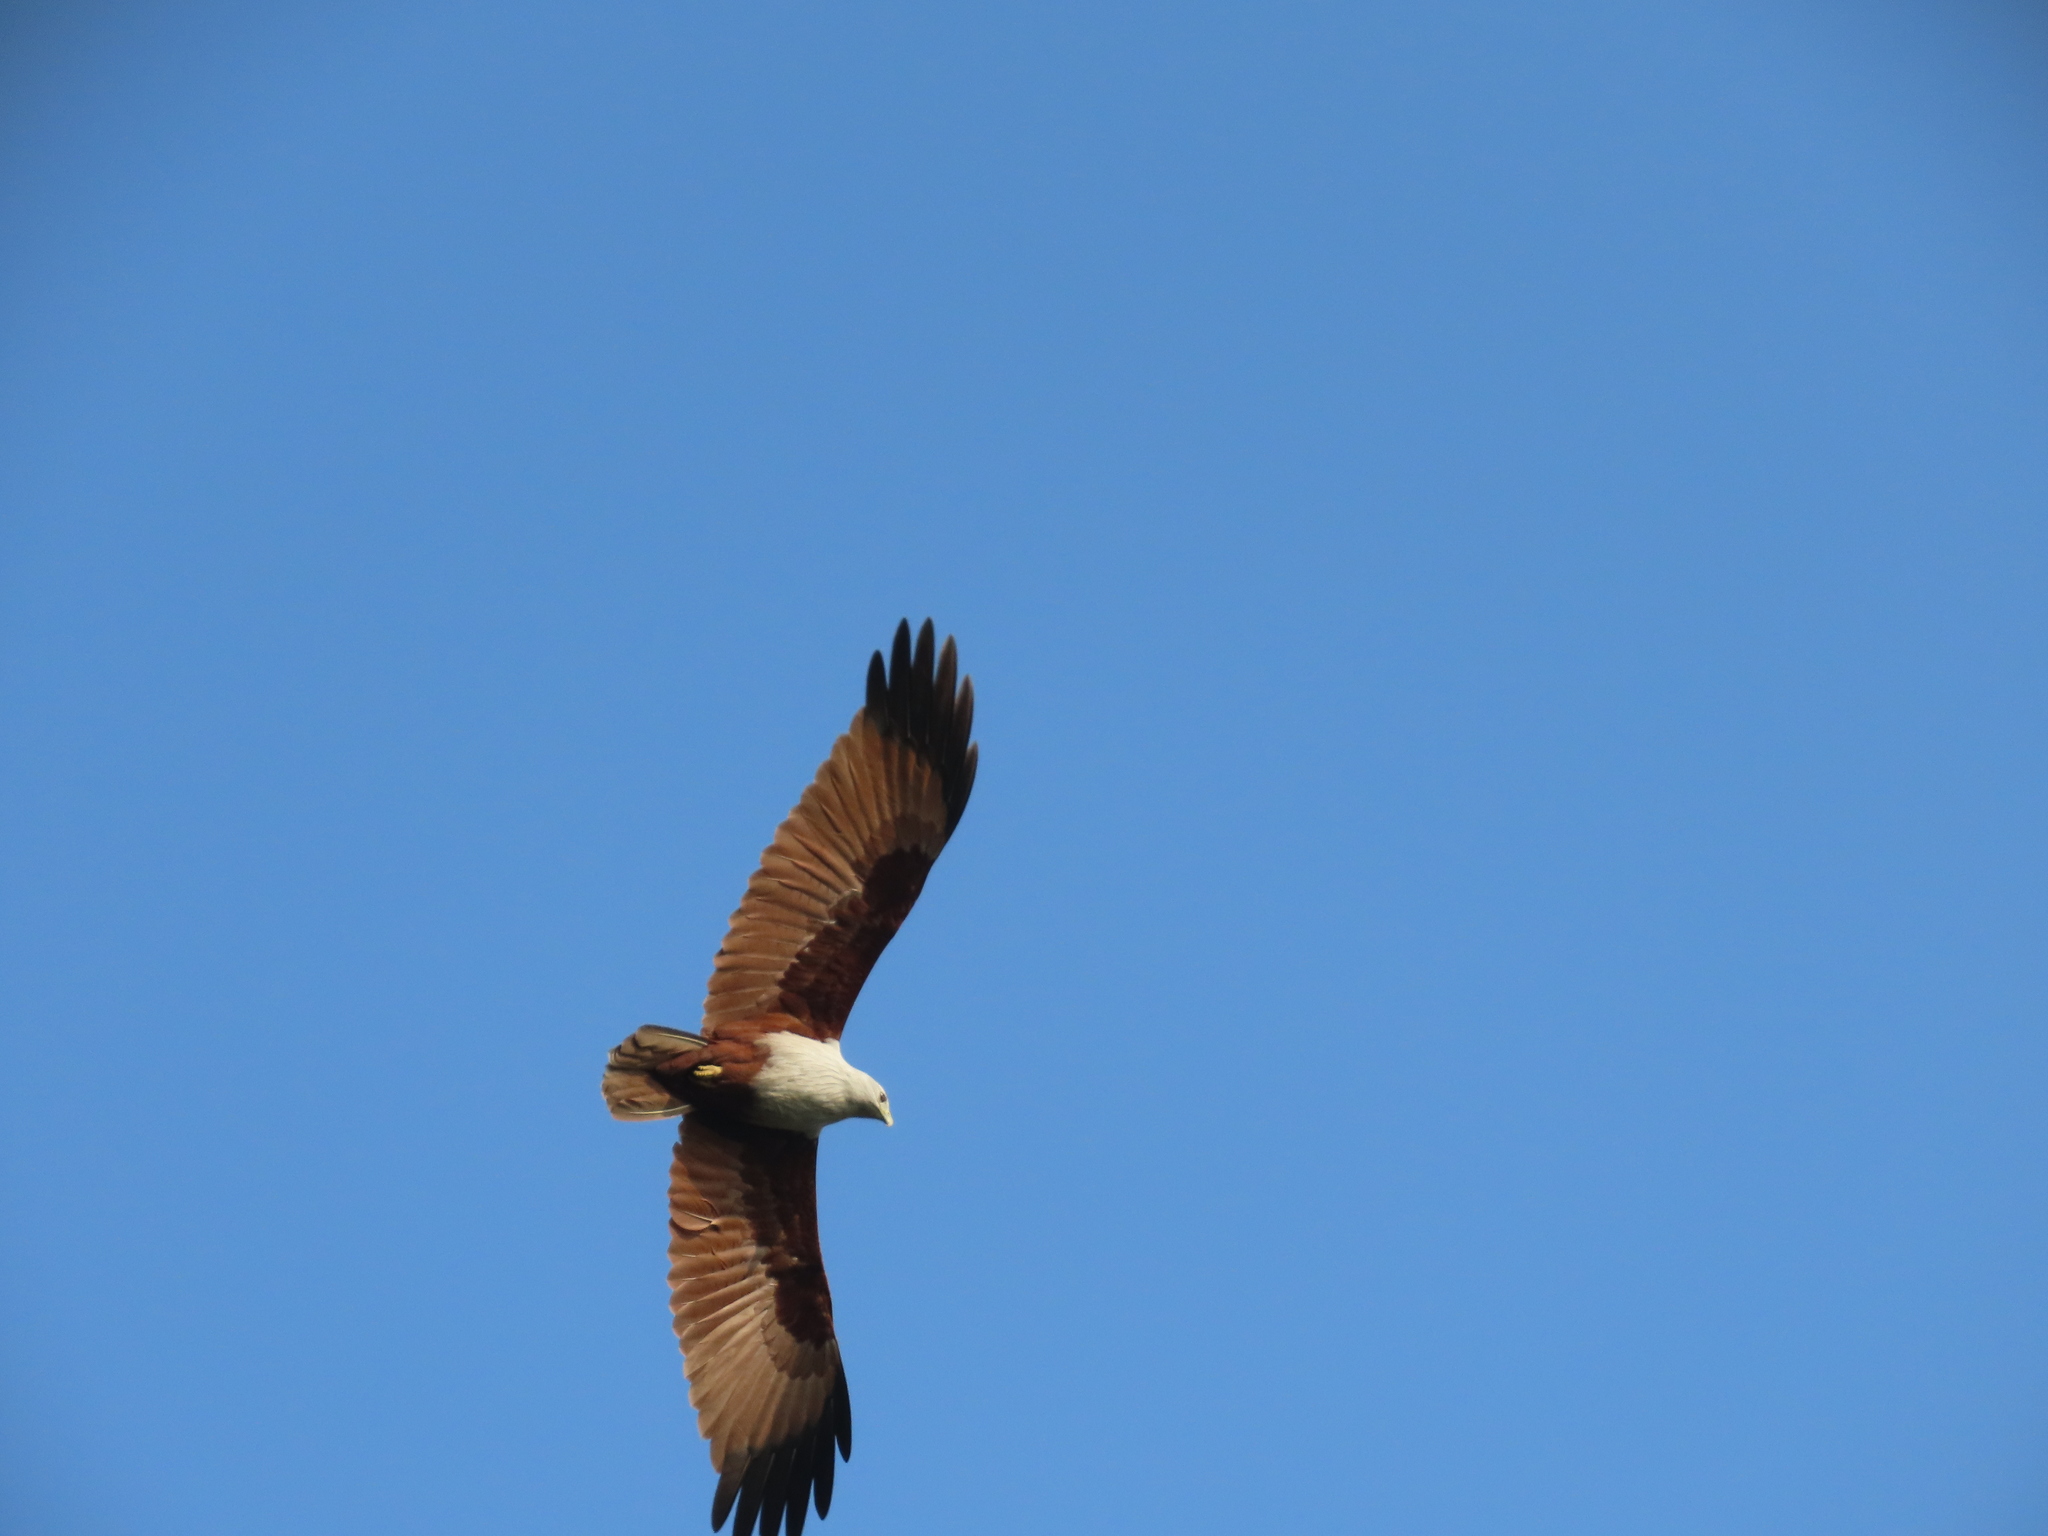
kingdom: Animalia
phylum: Chordata
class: Aves
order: Accipitriformes
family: Accipitridae
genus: Haliastur
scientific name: Haliastur indus
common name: Brahminy kite
